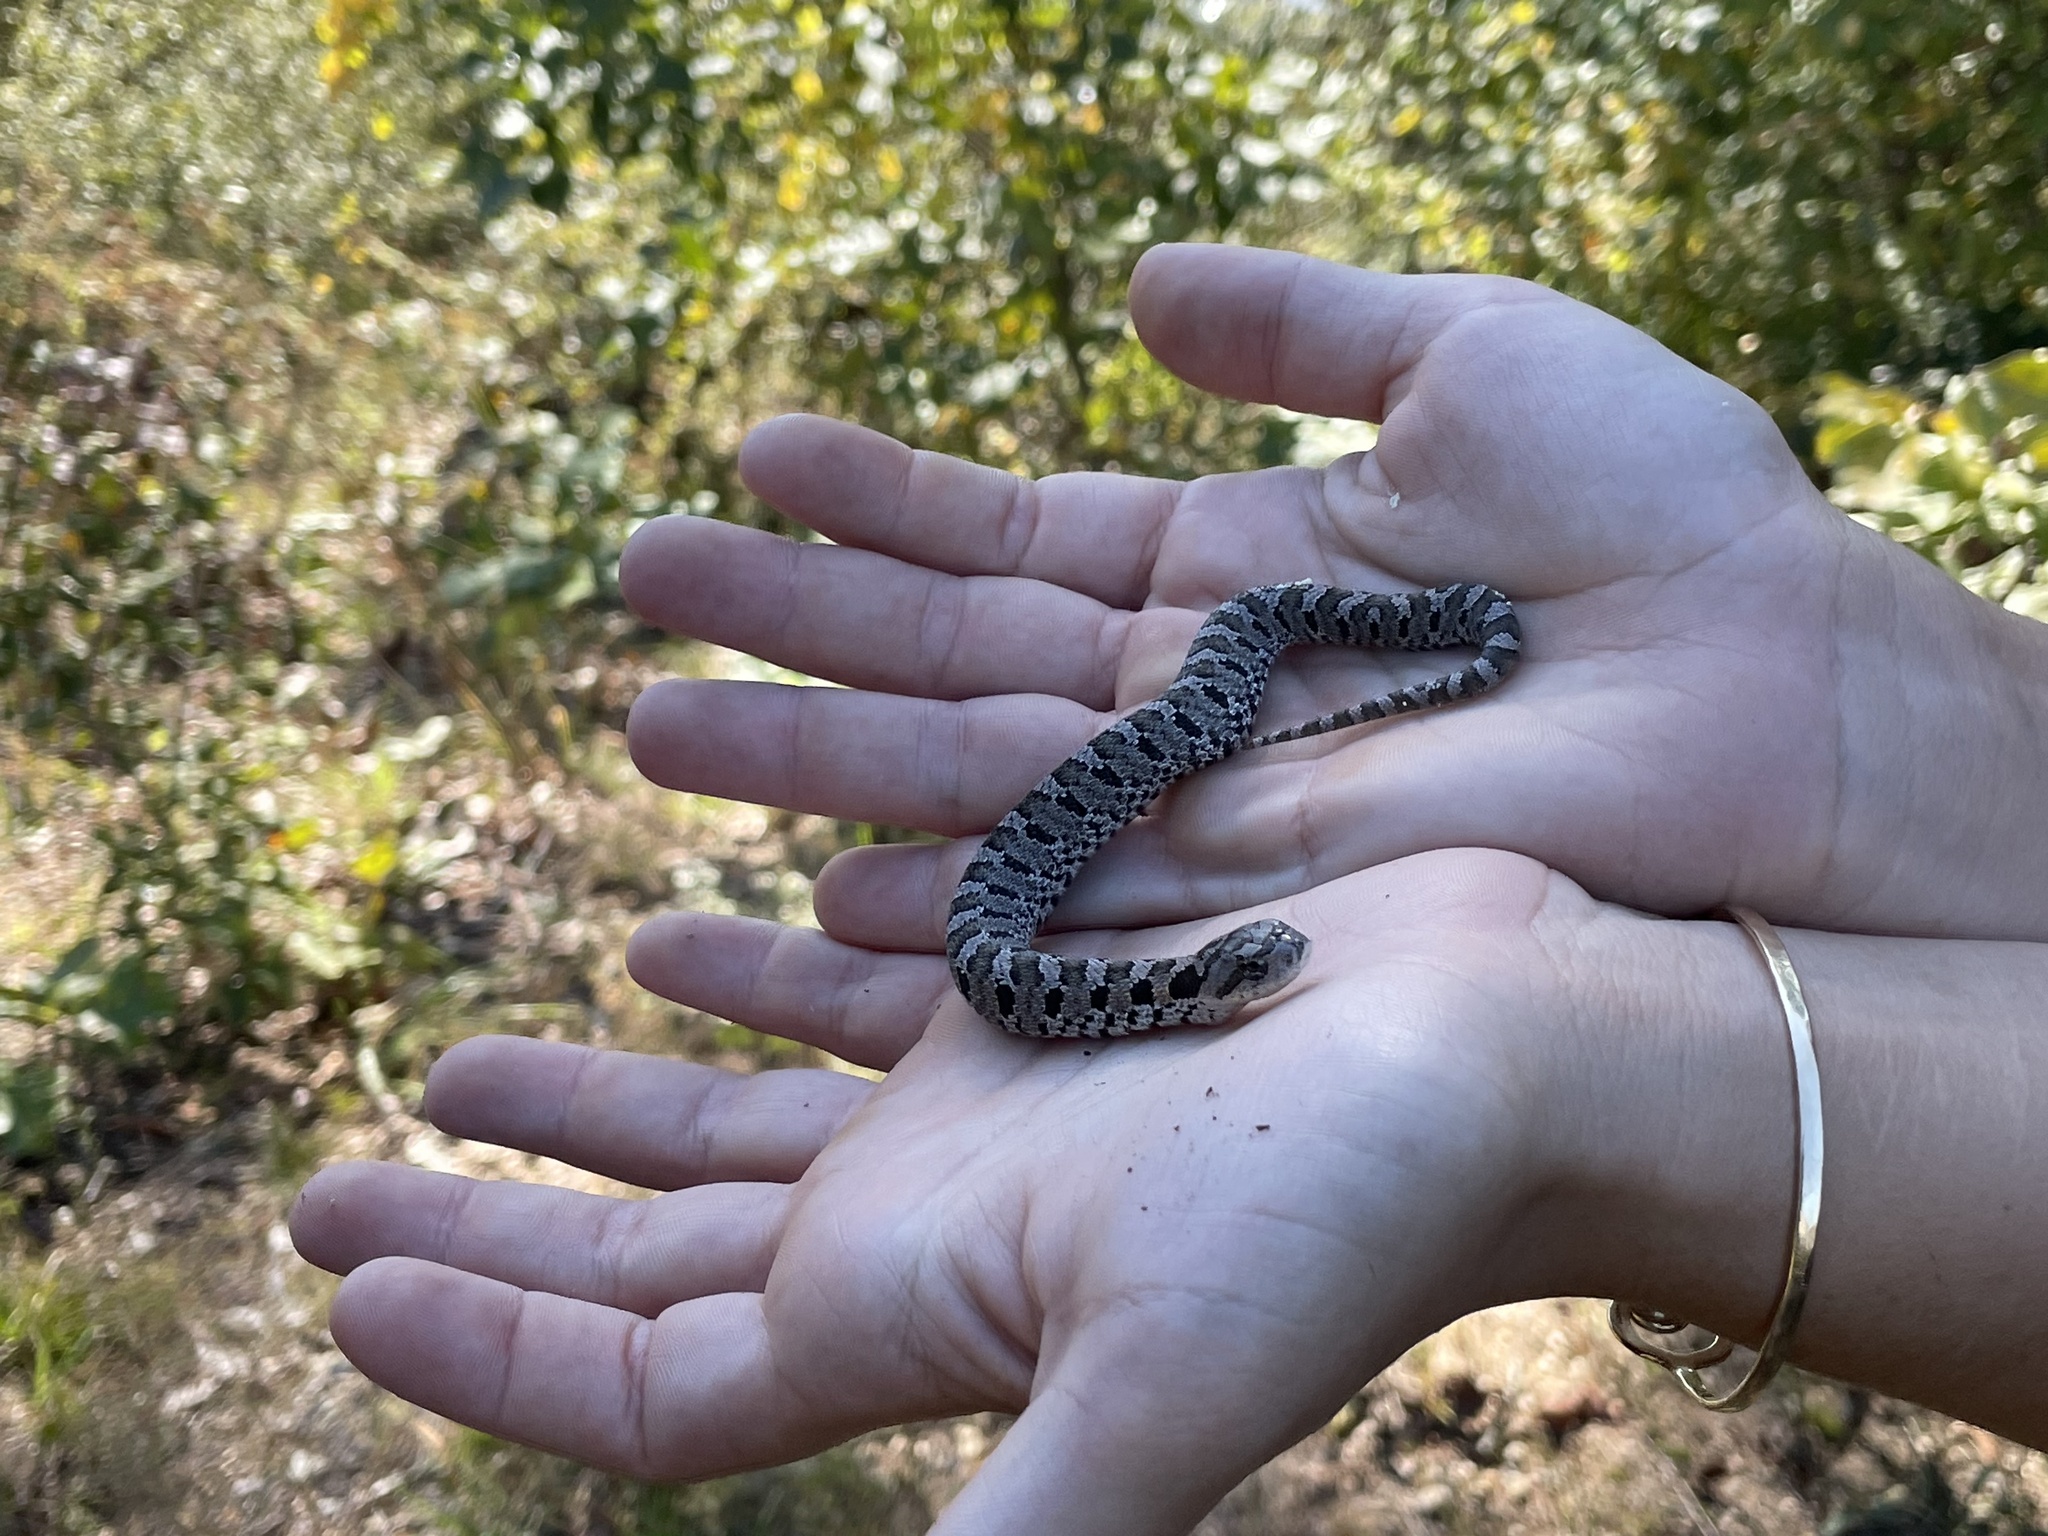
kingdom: Animalia
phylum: Chordata
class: Squamata
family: Colubridae
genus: Heterodon
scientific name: Heterodon platirhinos
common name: Eastern hognose snake
